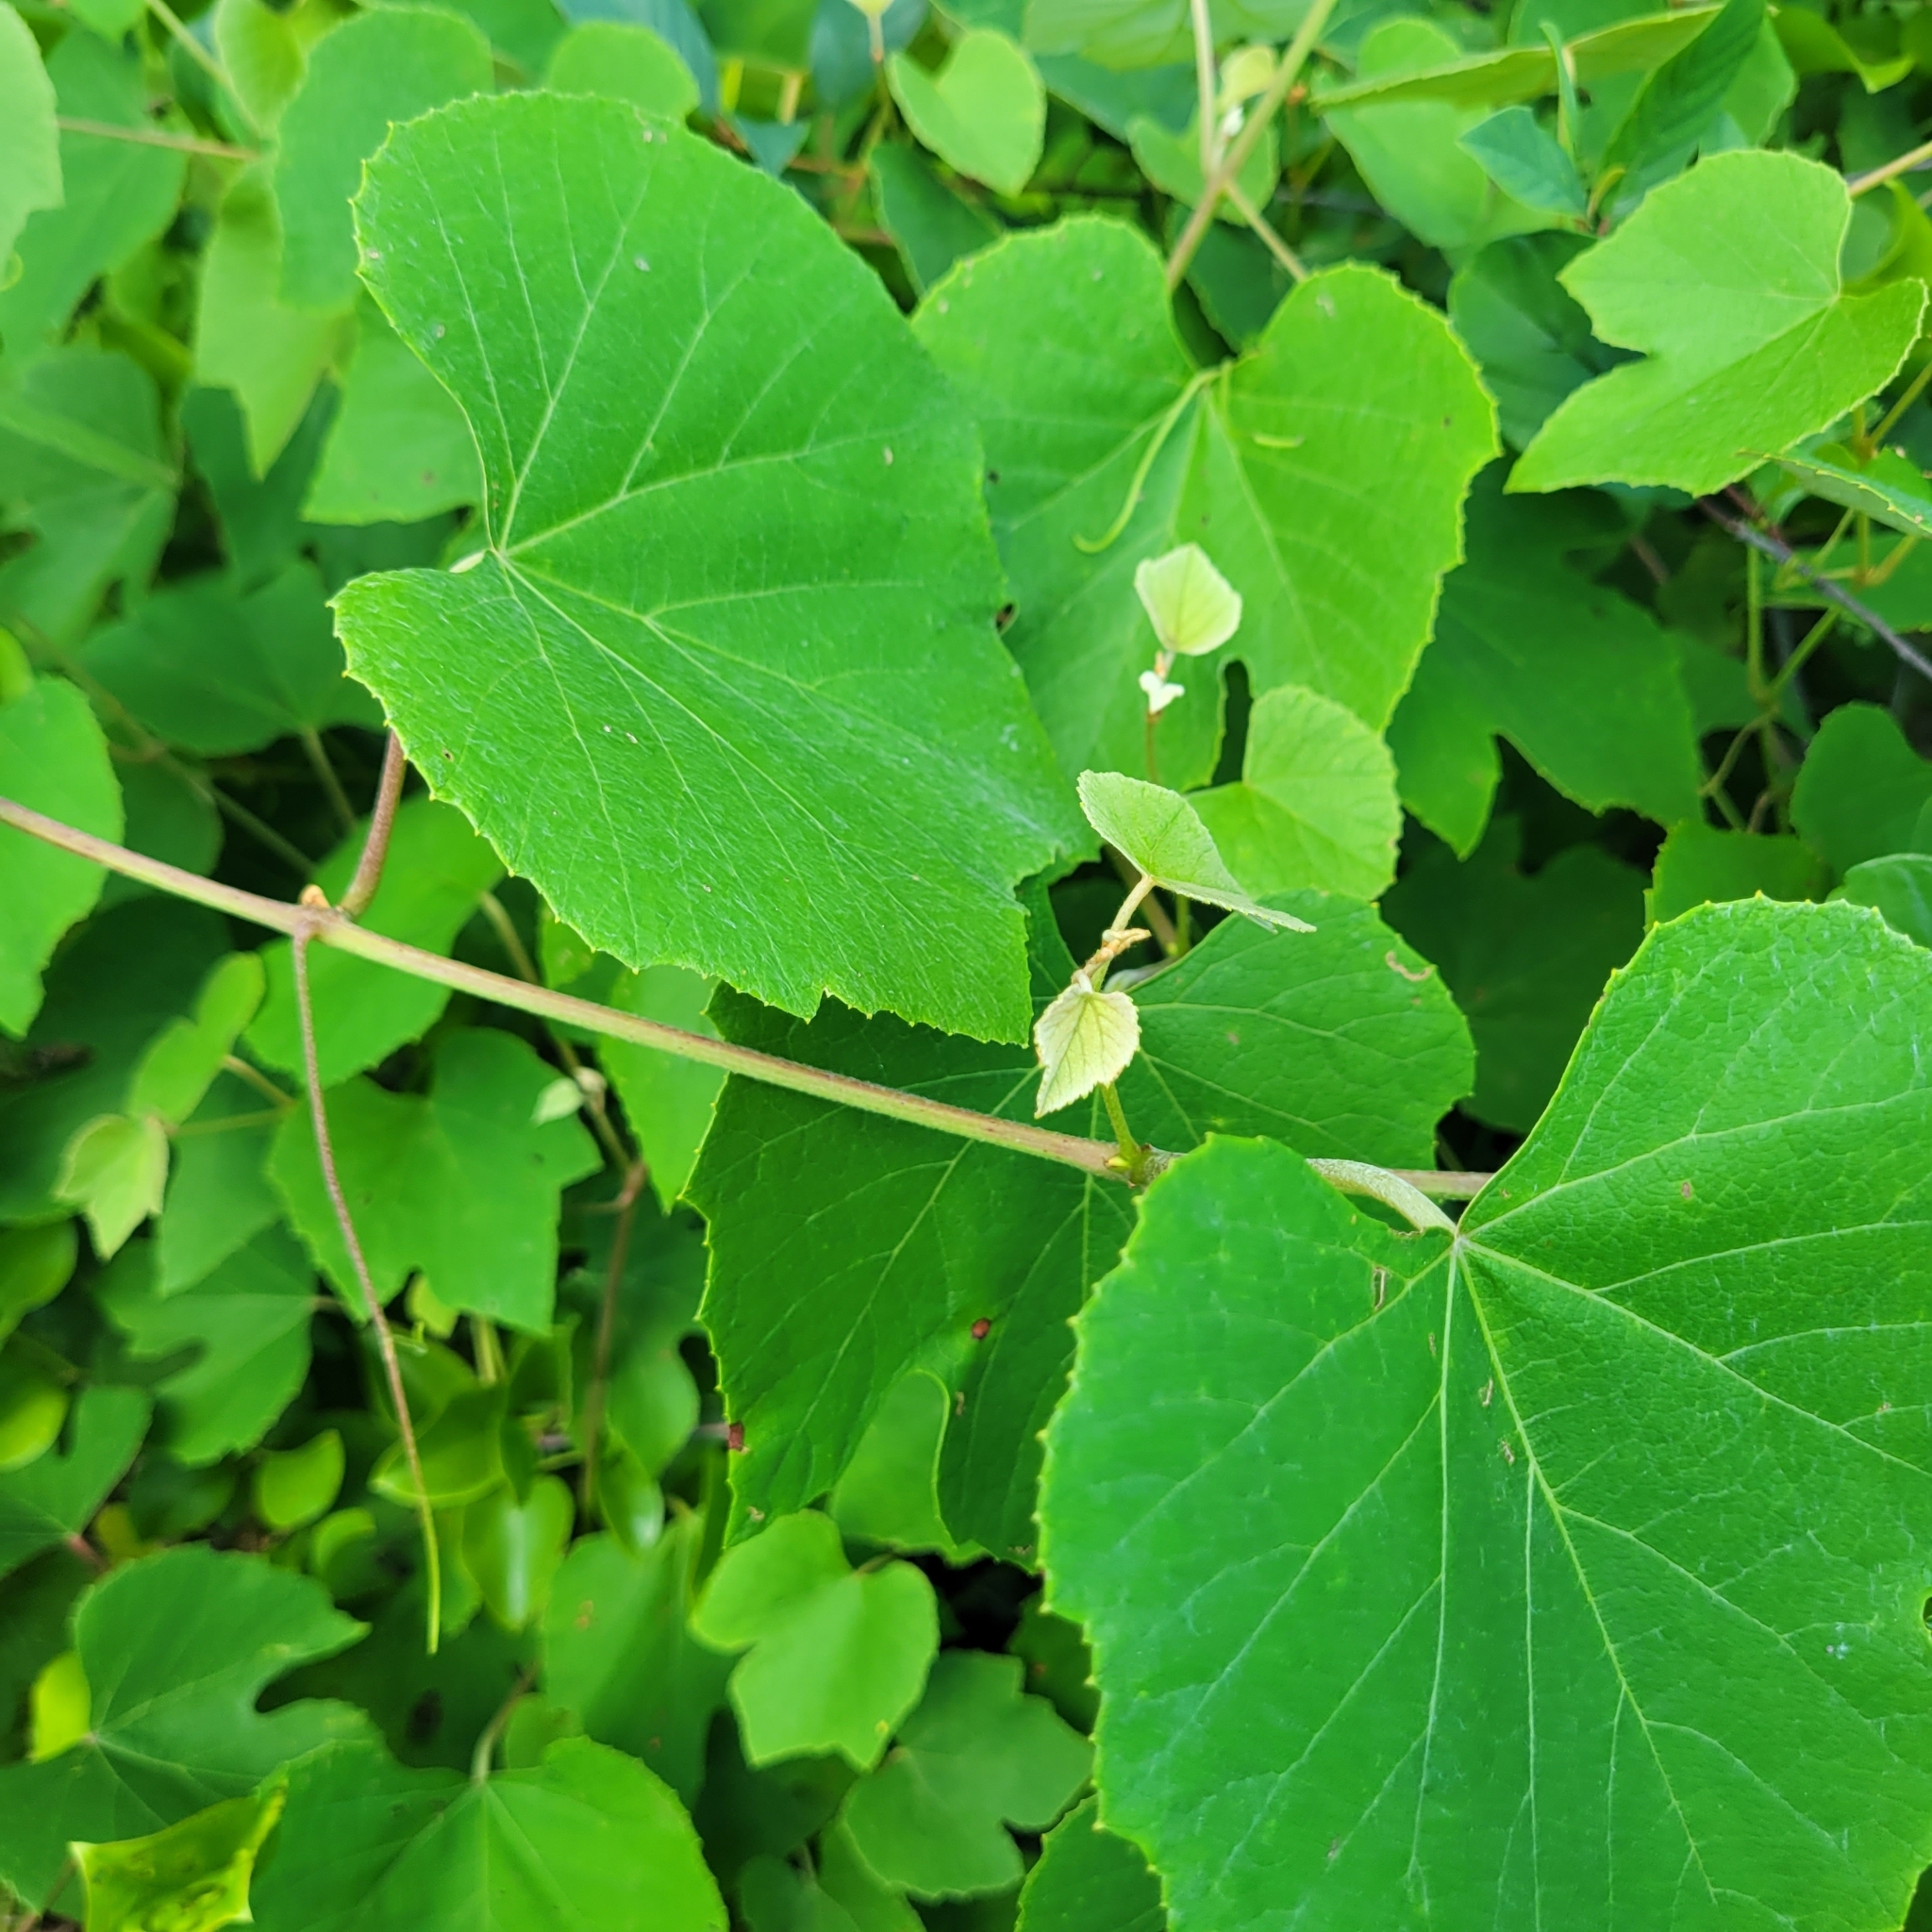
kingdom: Plantae
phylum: Tracheophyta
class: Magnoliopsida
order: Vitales
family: Vitaceae
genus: Vitis
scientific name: Vitis labrusca
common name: Concord grape
